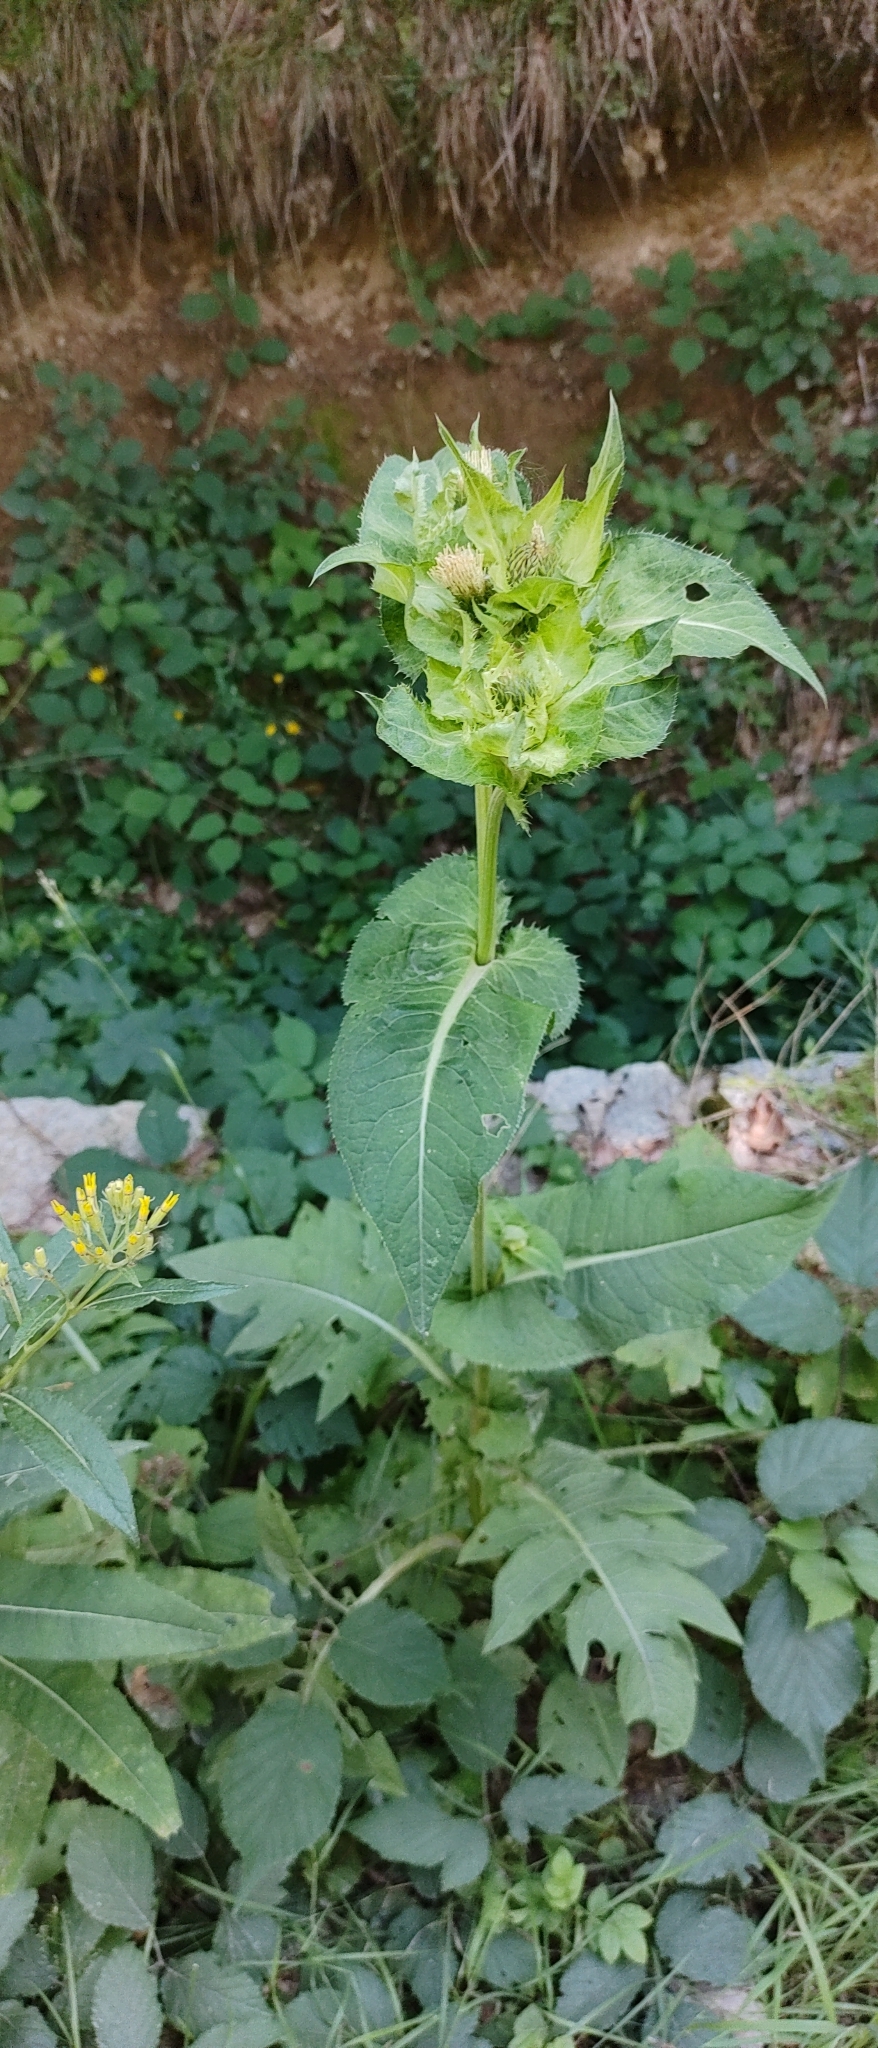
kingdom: Plantae
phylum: Tracheophyta
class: Magnoliopsida
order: Asterales
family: Asteraceae
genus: Cirsium
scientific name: Cirsium oleraceum
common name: Cabbage thistle
